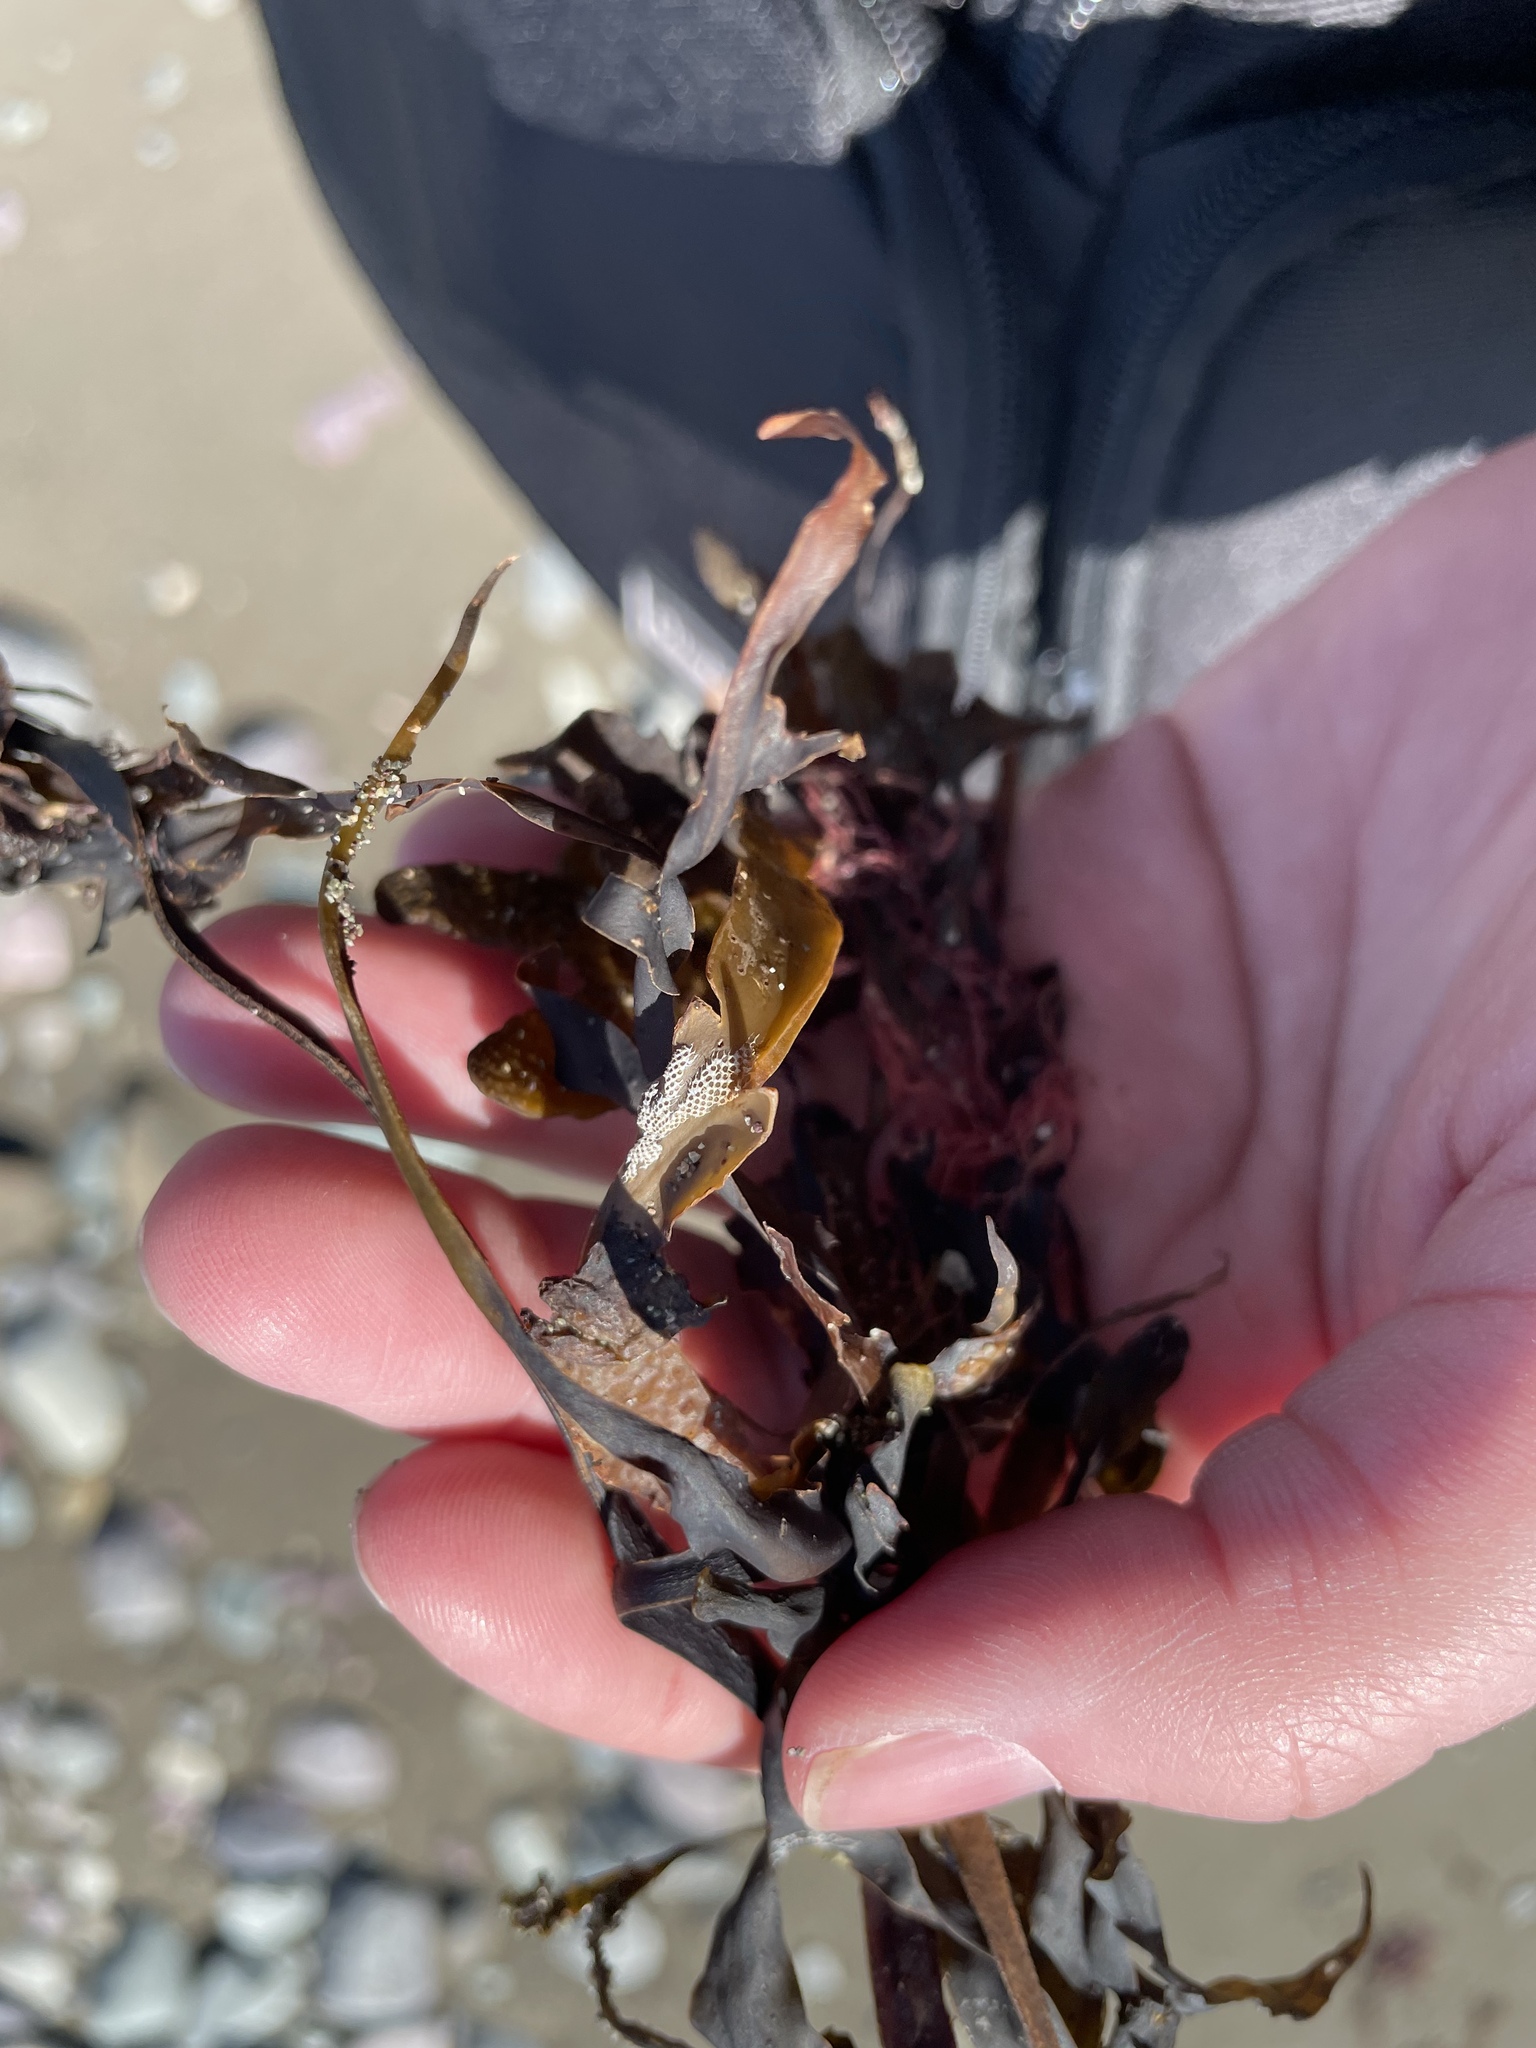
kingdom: Animalia
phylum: Bryozoa
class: Gymnolaemata
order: Cheilostomatida
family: Electridae
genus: Electra
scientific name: Electra pilosa
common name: Hairy sea-mat
